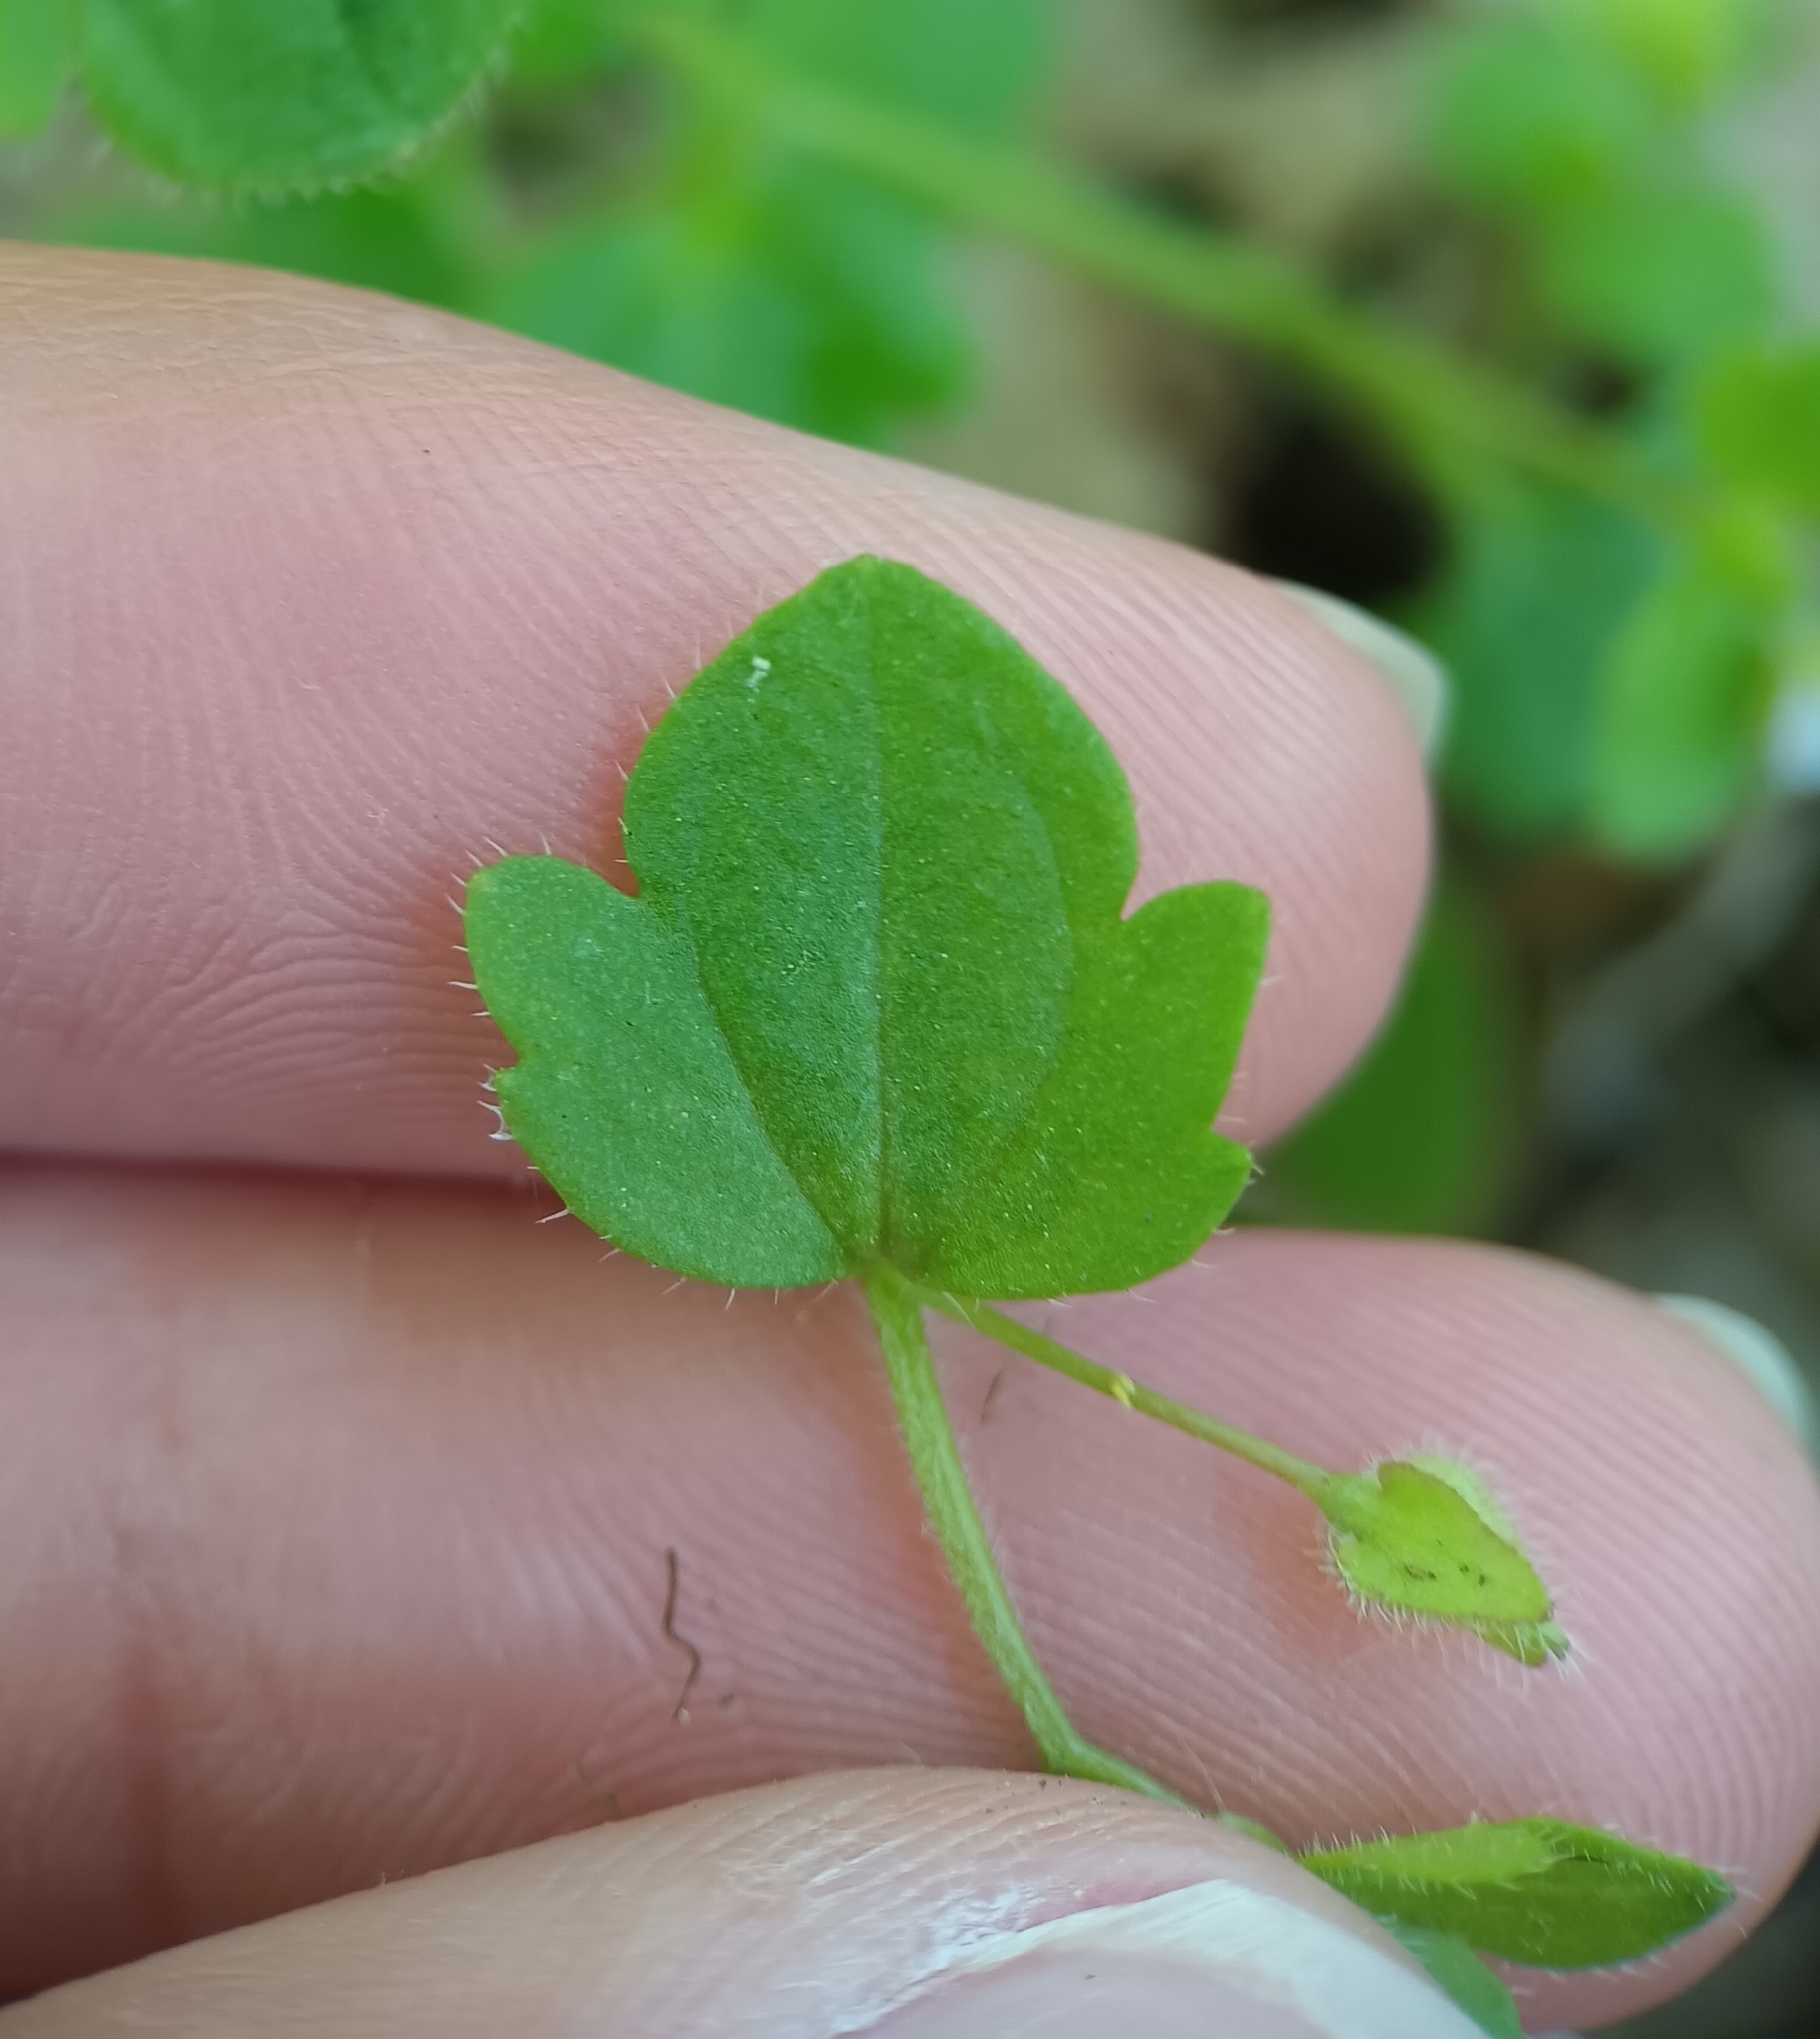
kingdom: Plantae
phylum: Tracheophyta
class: Magnoliopsida
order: Lamiales
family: Plantaginaceae
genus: Veronica
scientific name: Veronica sublobata
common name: False ivy-leaved speedwell
